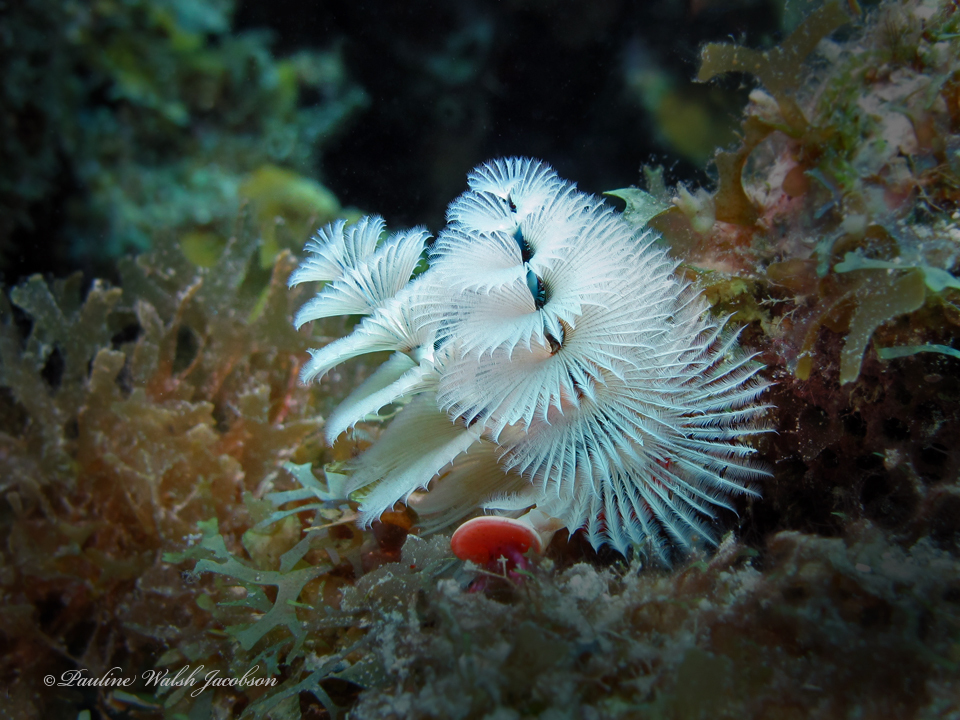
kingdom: Animalia
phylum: Annelida
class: Polychaeta
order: Sabellida
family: Serpulidae
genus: Spirobranchus
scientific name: Spirobranchus giganteus
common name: Christmas tree worm
